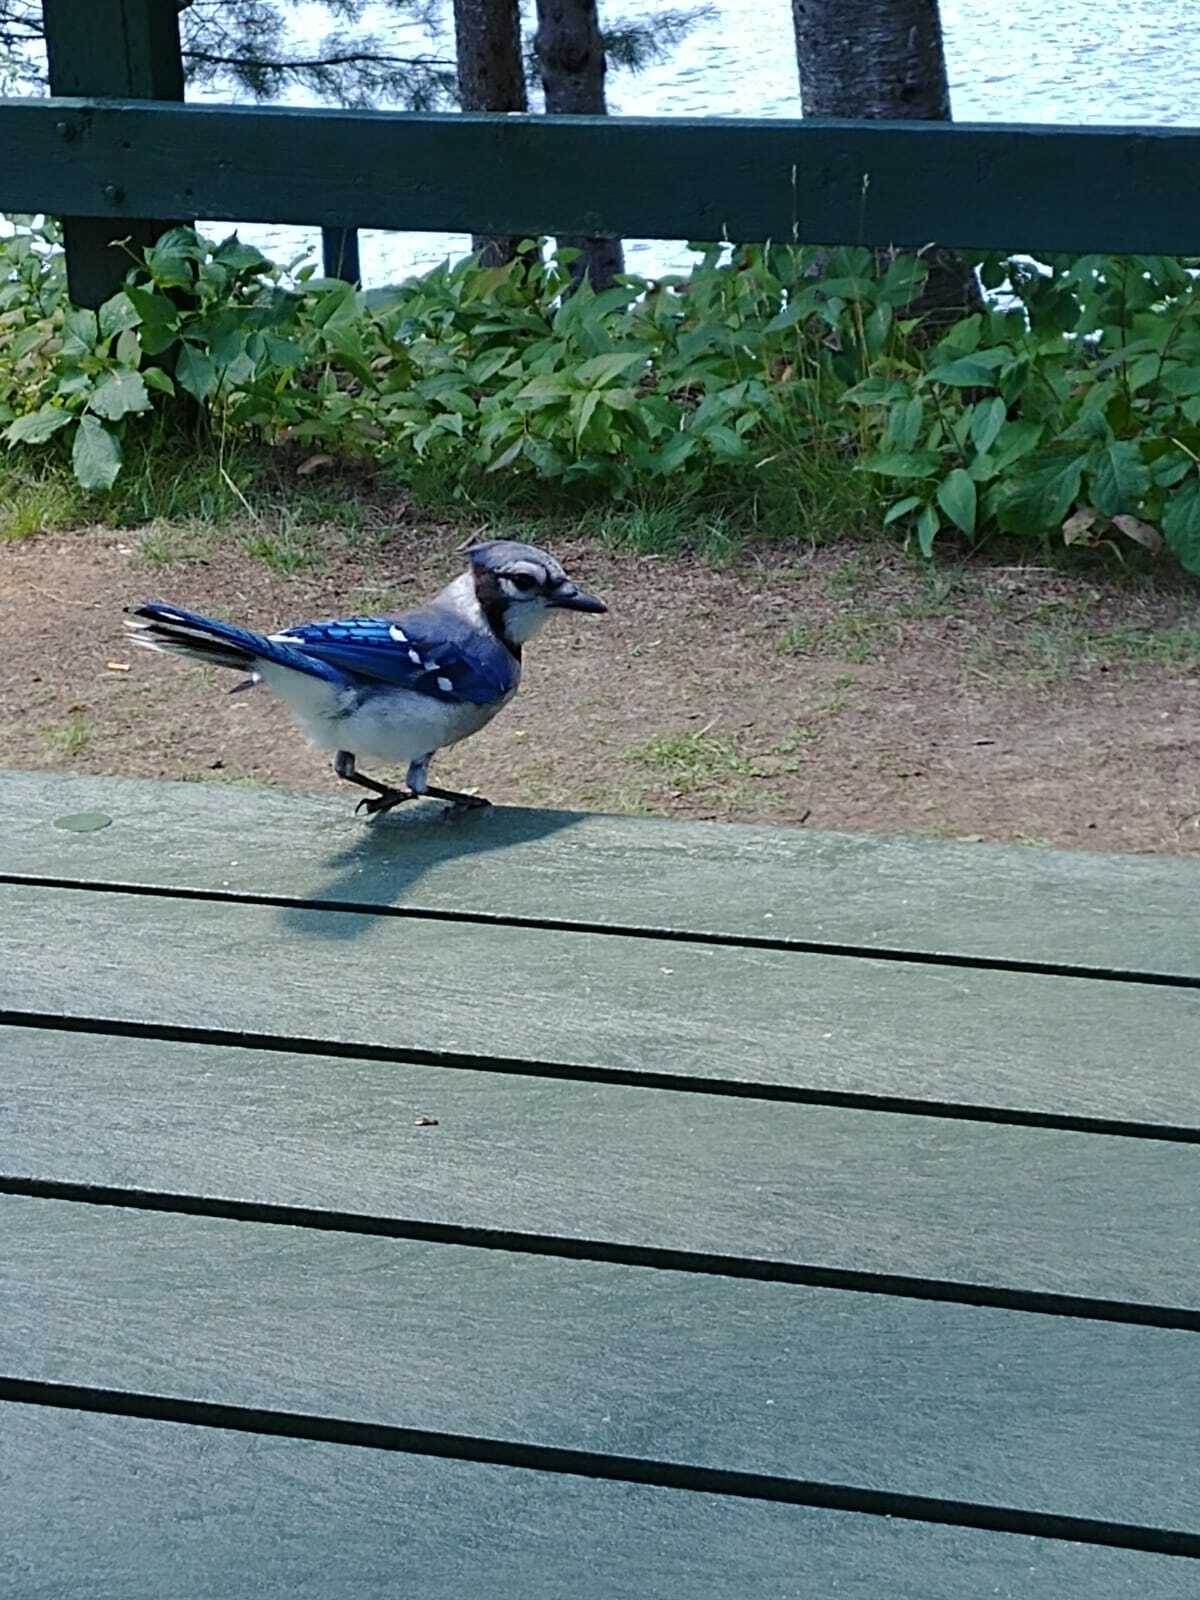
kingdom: Animalia
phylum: Chordata
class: Aves
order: Passeriformes
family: Corvidae
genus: Cyanocitta
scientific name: Cyanocitta cristata
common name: Blue jay
